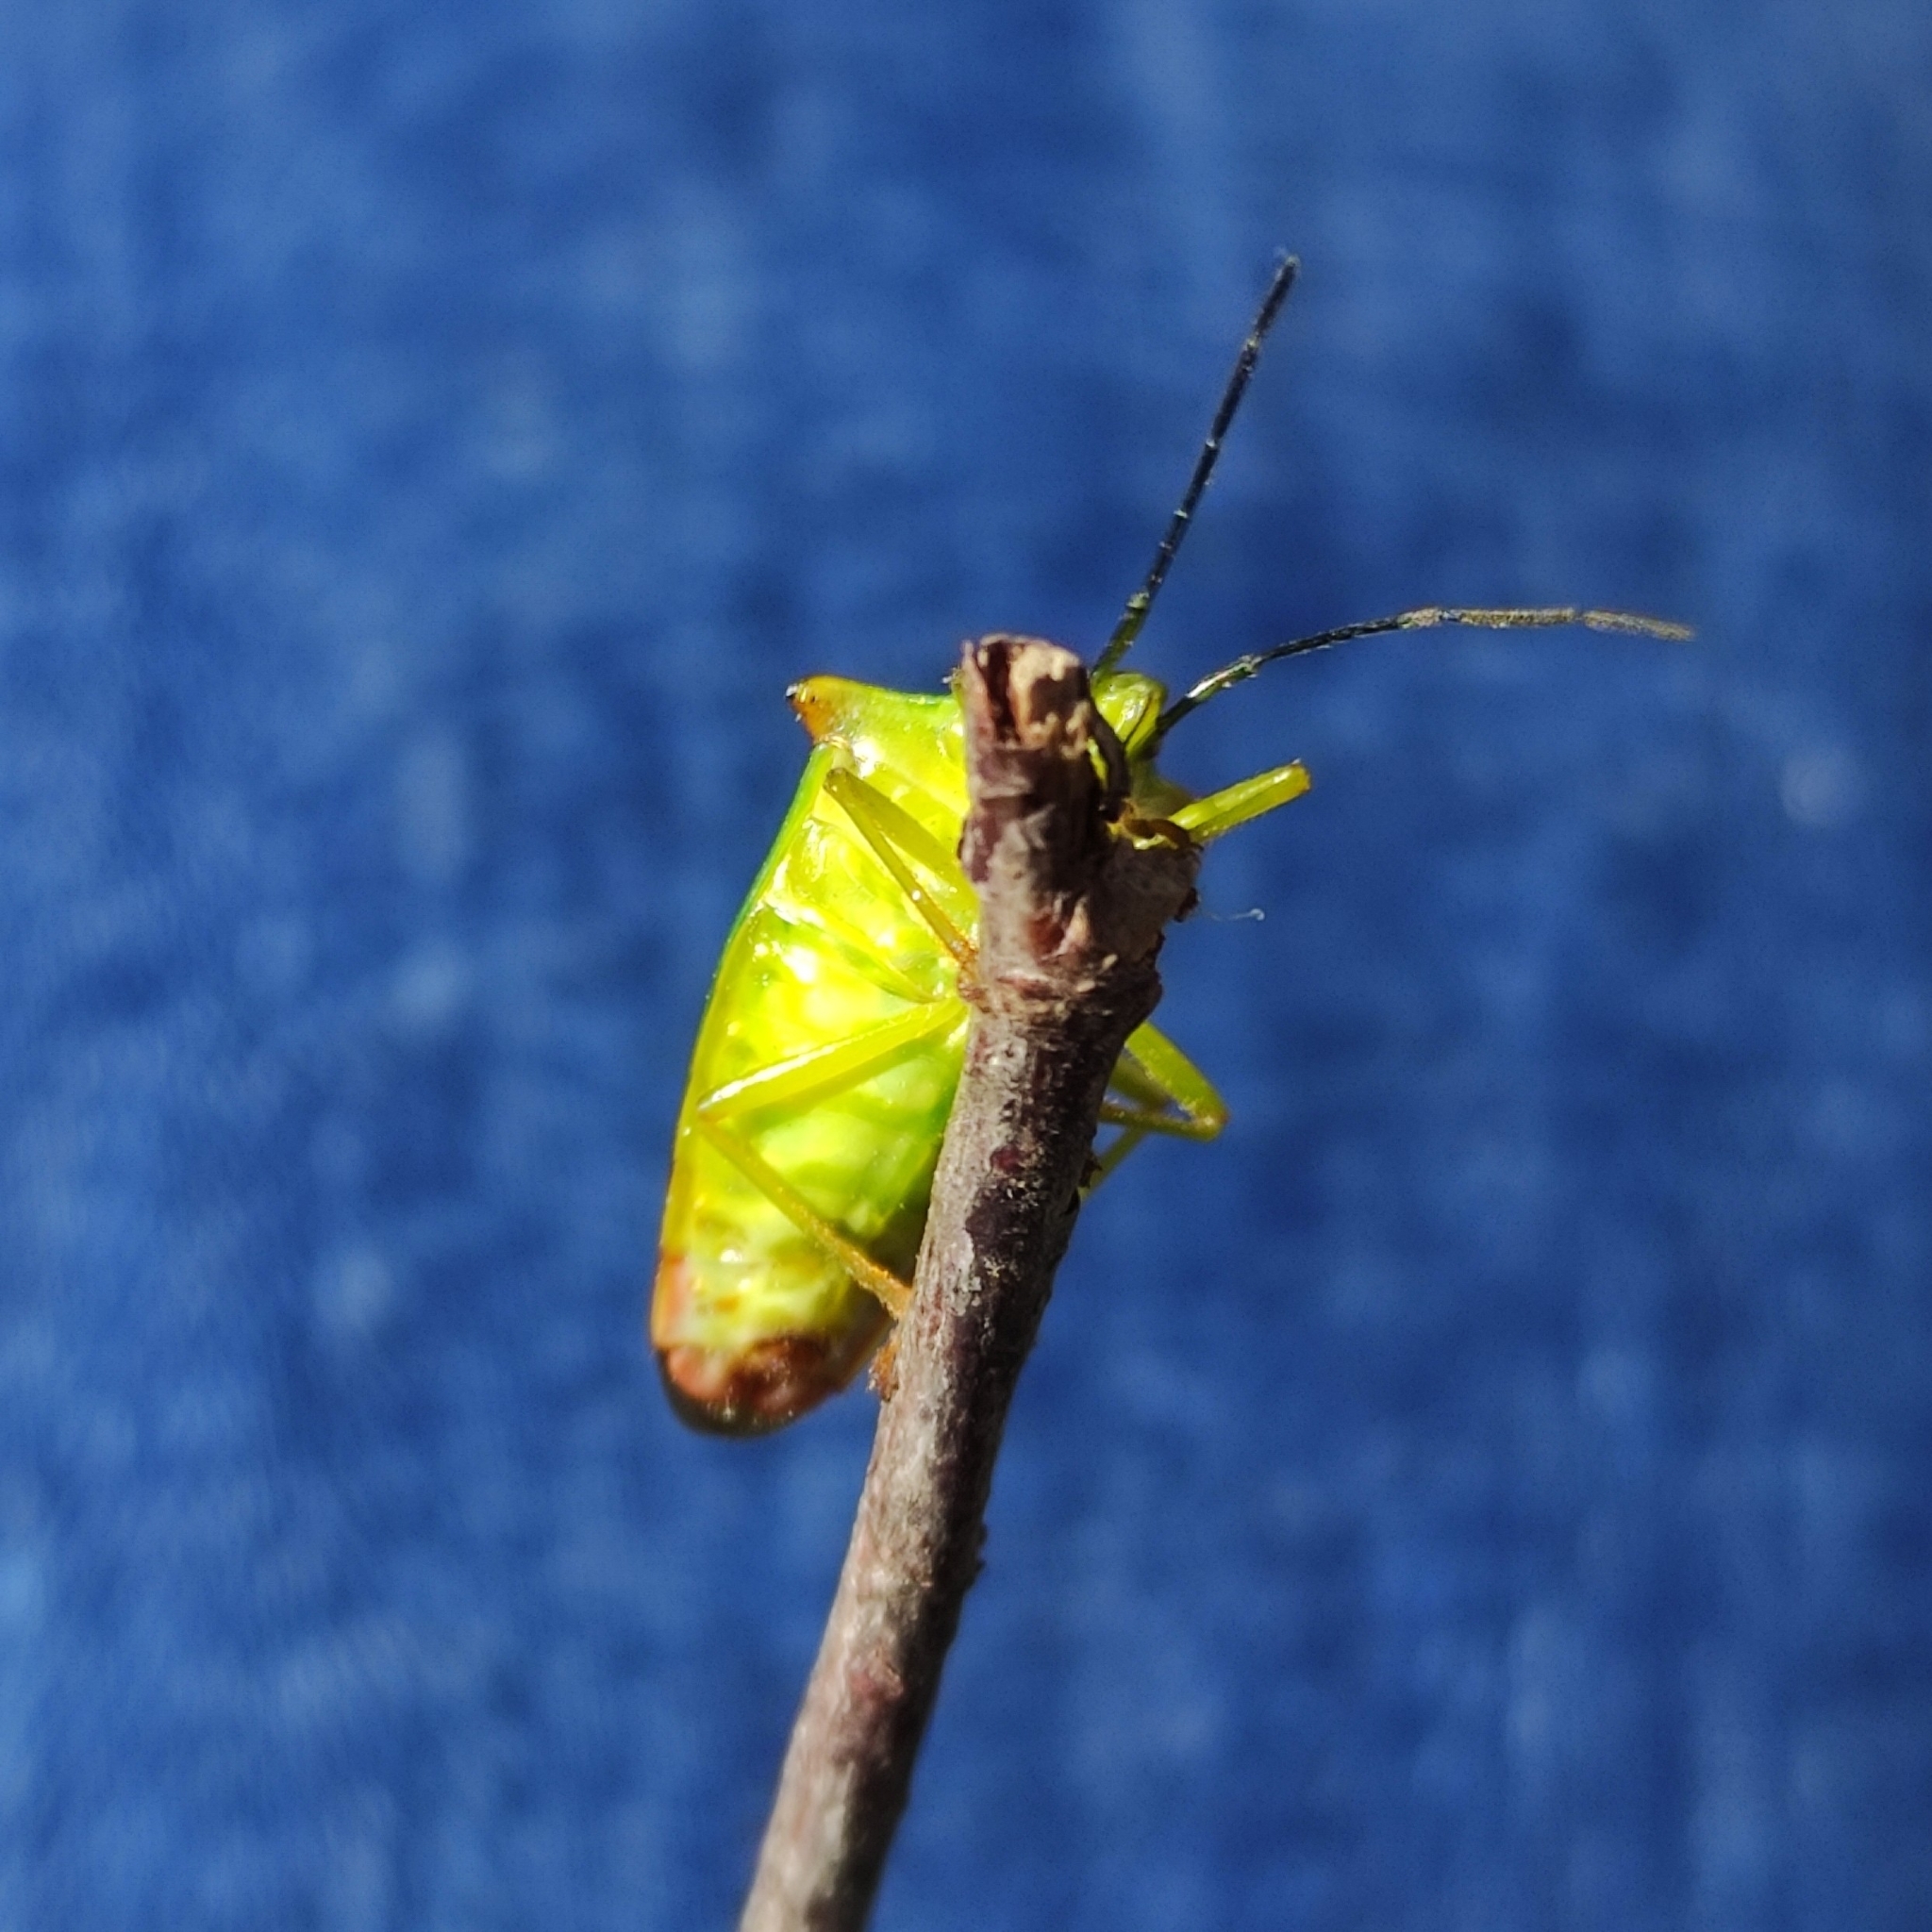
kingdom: Animalia
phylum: Arthropoda
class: Insecta
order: Hemiptera
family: Acanthosomatidae
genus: Acanthosoma
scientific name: Acanthosoma haemorrhoidale
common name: Hawthorn shieldbug
